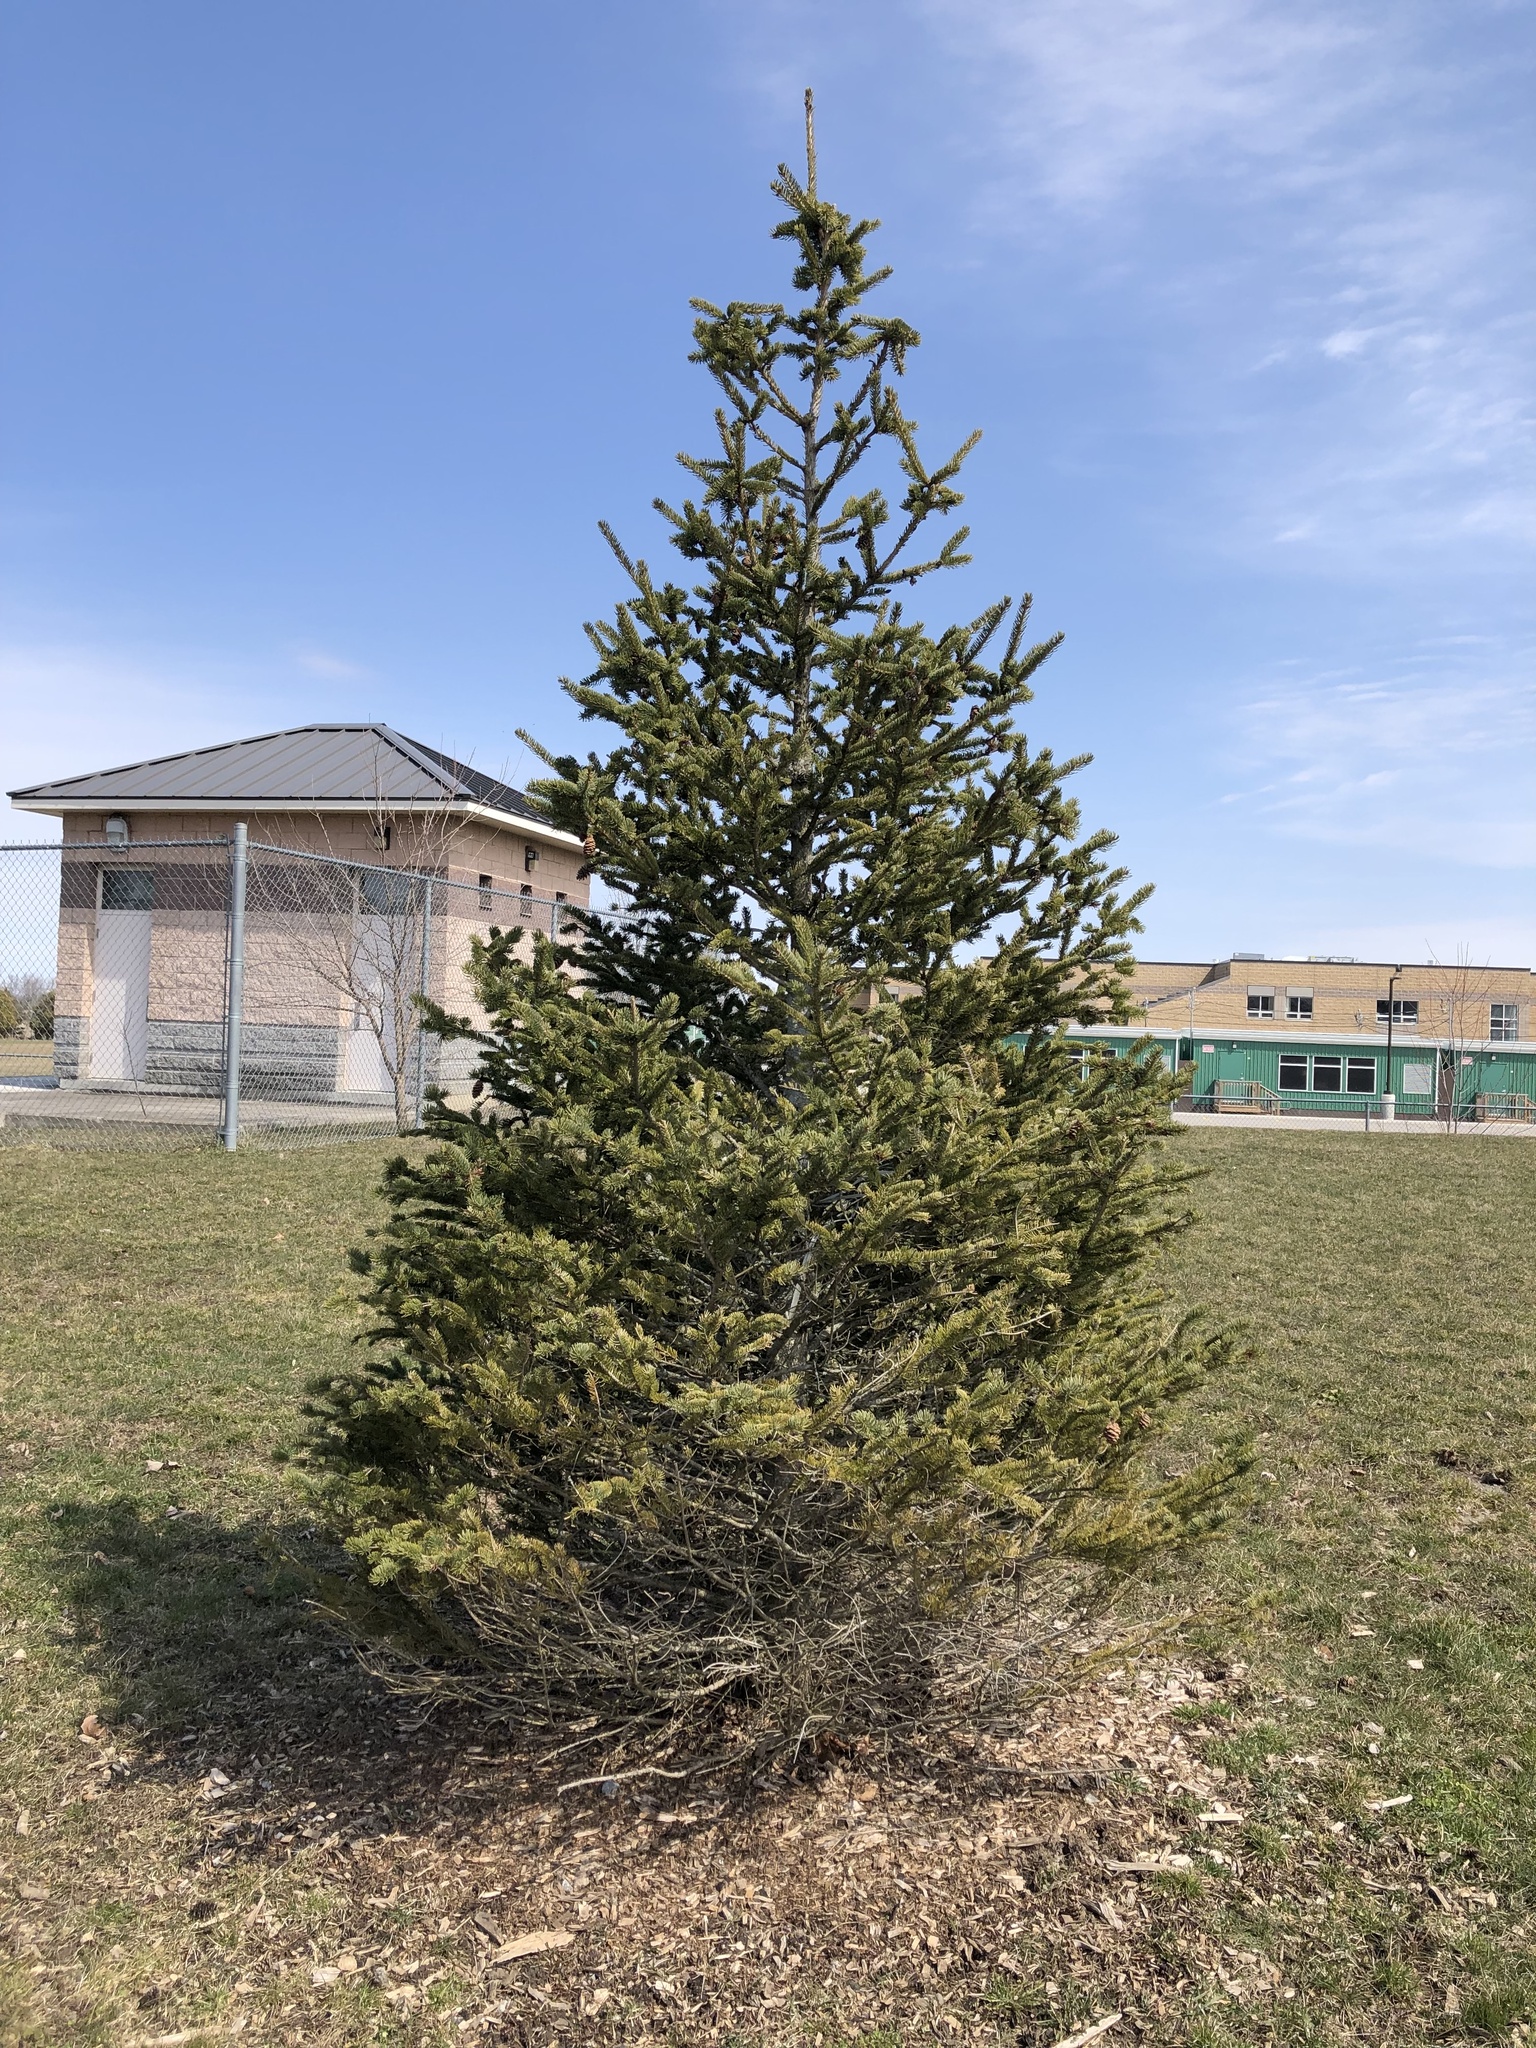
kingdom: Plantae
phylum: Tracheophyta
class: Pinopsida
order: Pinales
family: Pinaceae
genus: Picea
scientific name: Picea glauca
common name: White spruce
